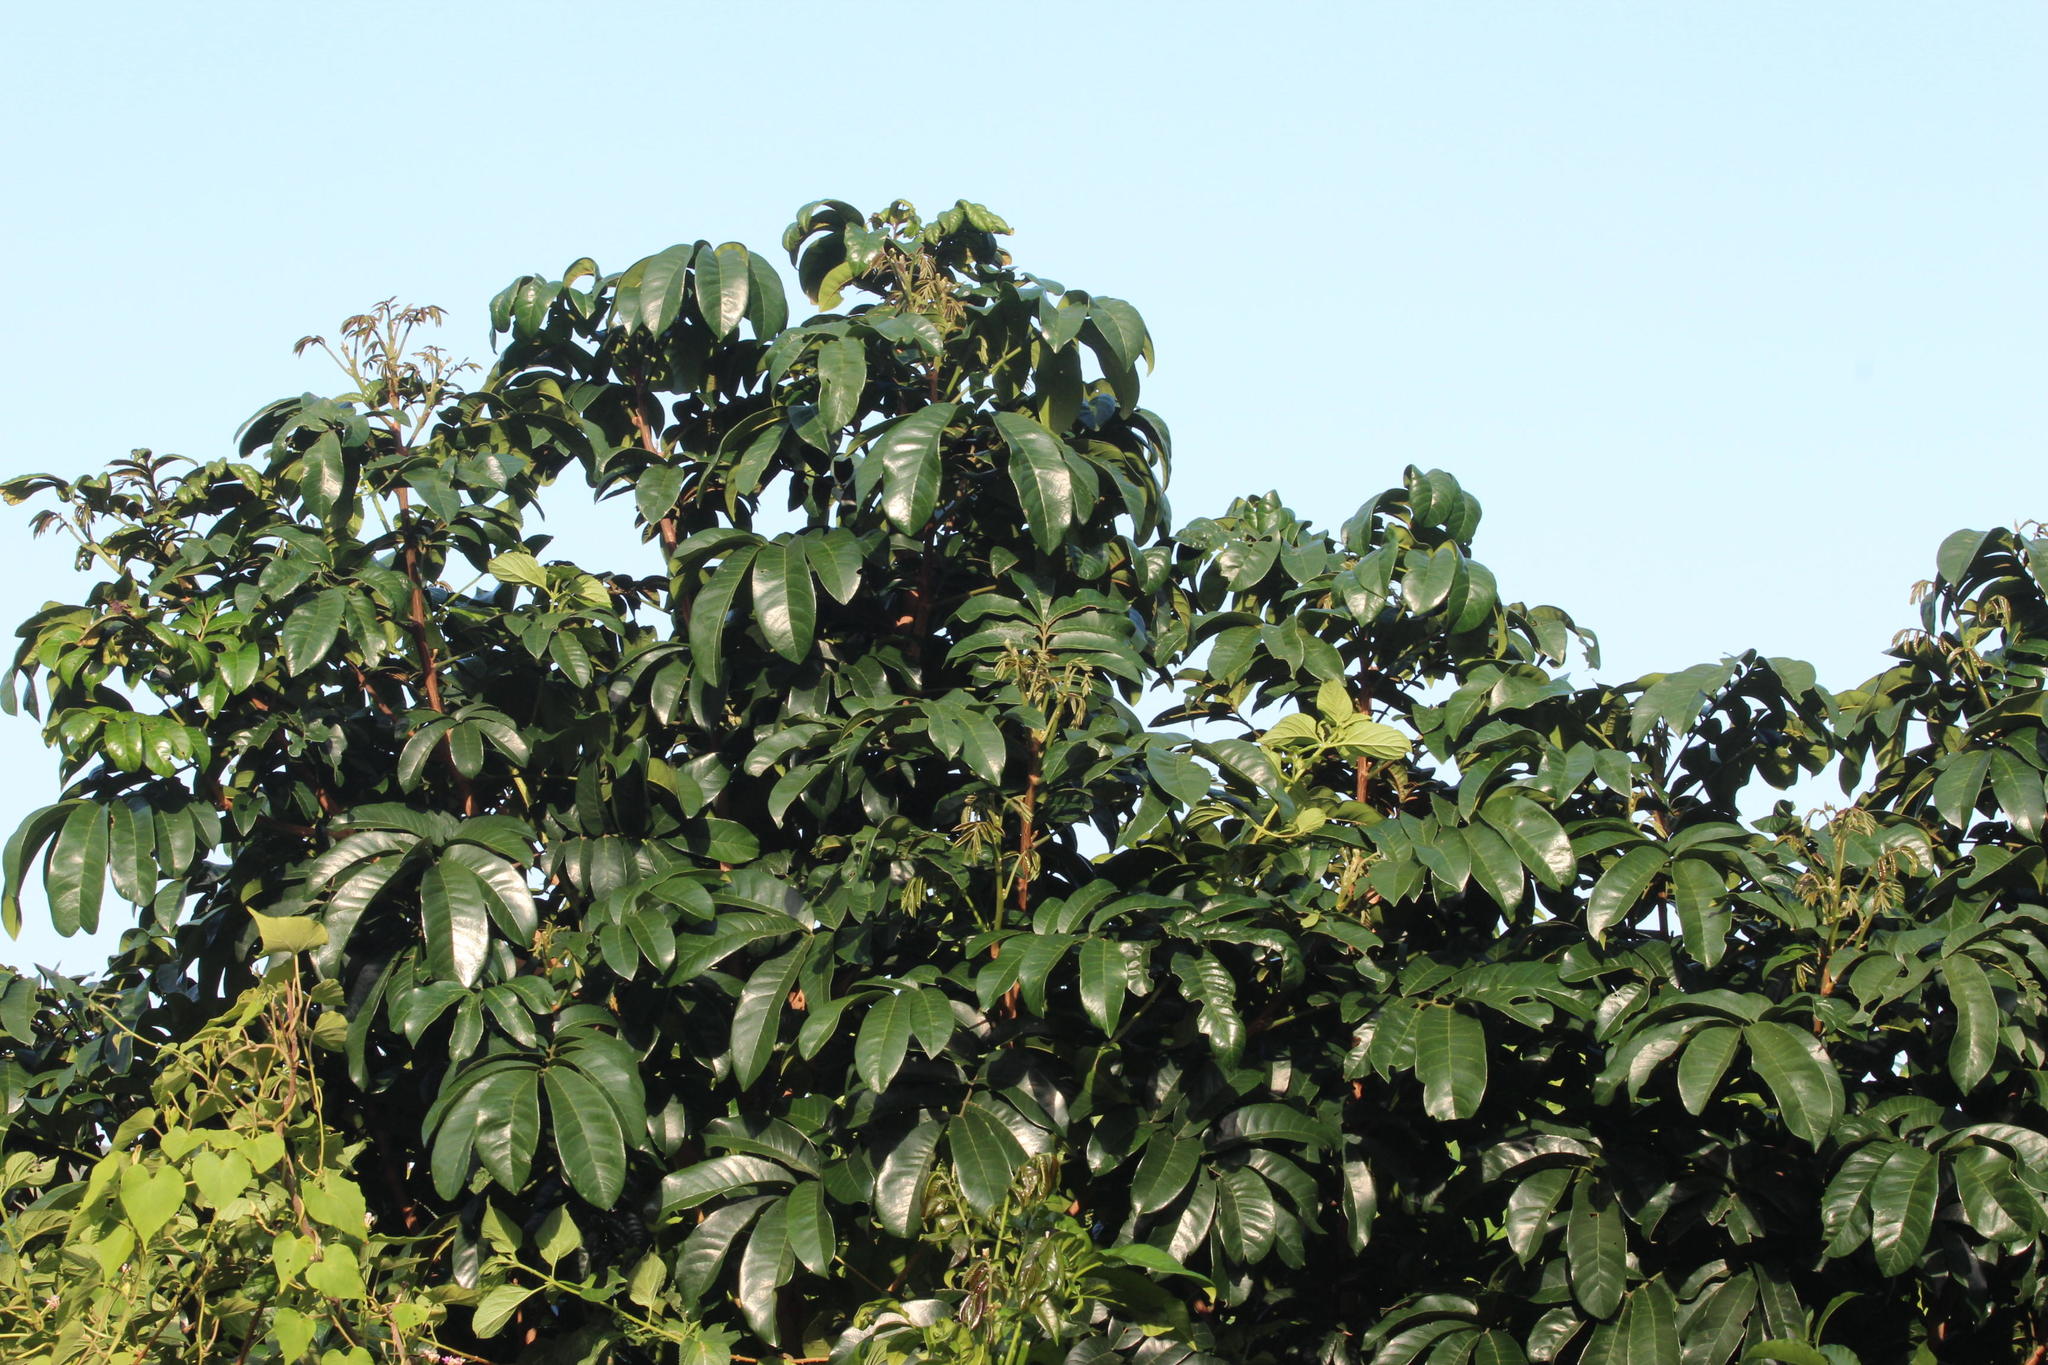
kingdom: Plantae
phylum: Tracheophyta
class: Magnoliopsida
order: Sapindales
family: Meliaceae
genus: Trichilia
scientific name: Trichilia dregeana
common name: Christmas-bells
